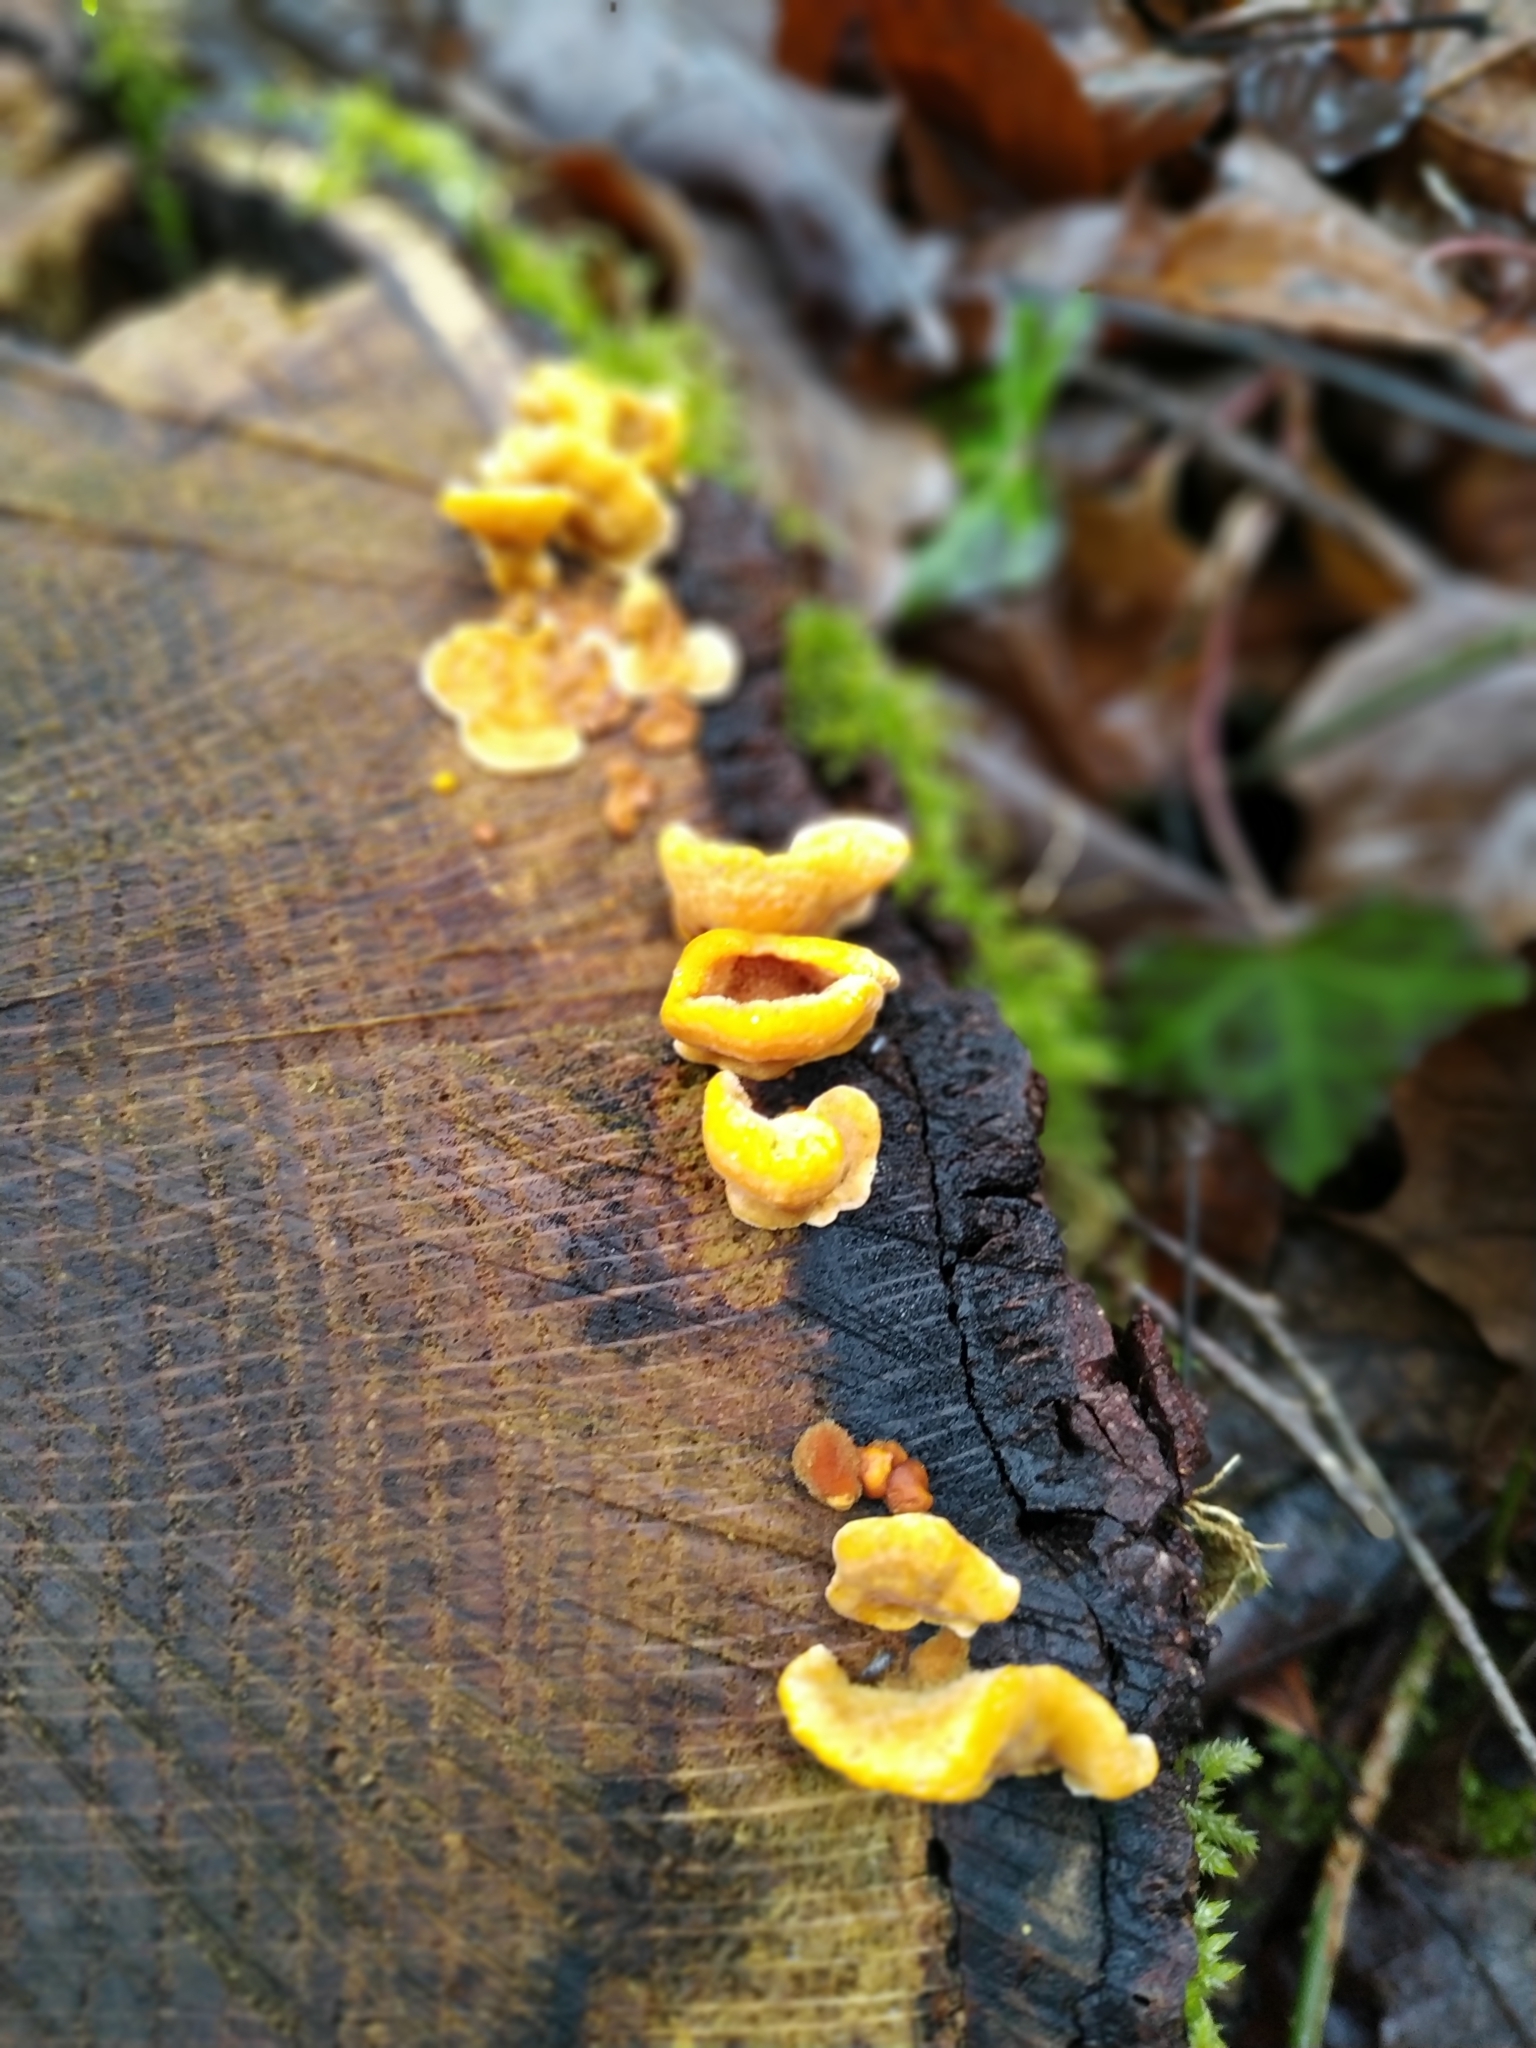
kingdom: Fungi
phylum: Basidiomycota
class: Agaricomycetes
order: Russulales
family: Stereaceae
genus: Stereum
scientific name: Stereum hirsutum
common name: Hairy curtain crust
